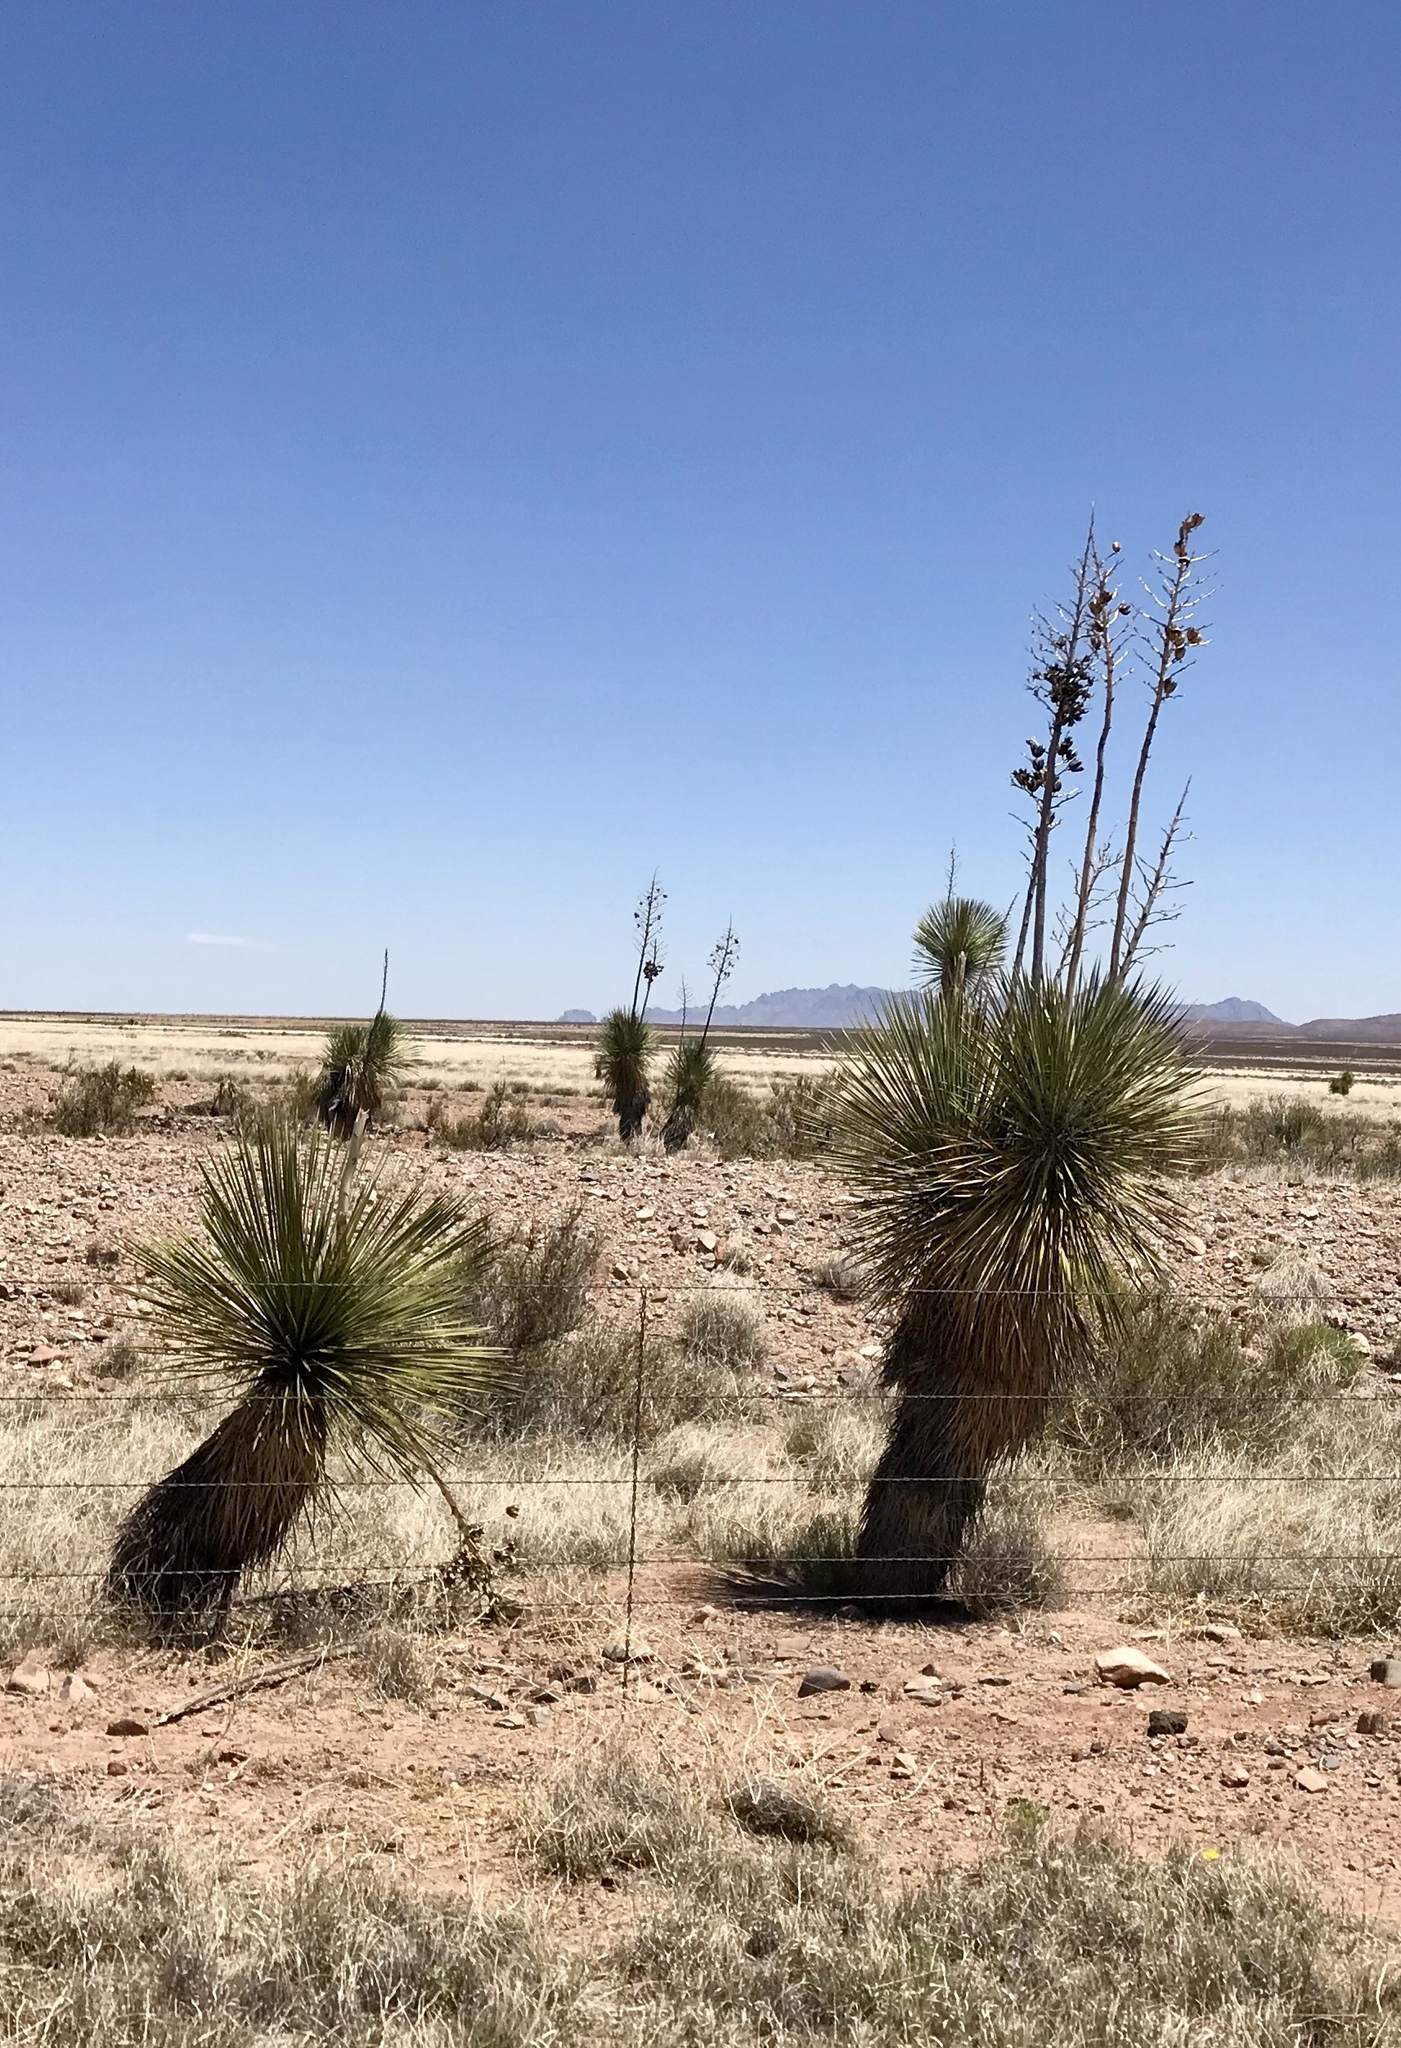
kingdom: Plantae
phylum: Tracheophyta
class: Liliopsida
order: Asparagales
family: Asparagaceae
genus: Yucca
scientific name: Yucca elata
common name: Palmella
